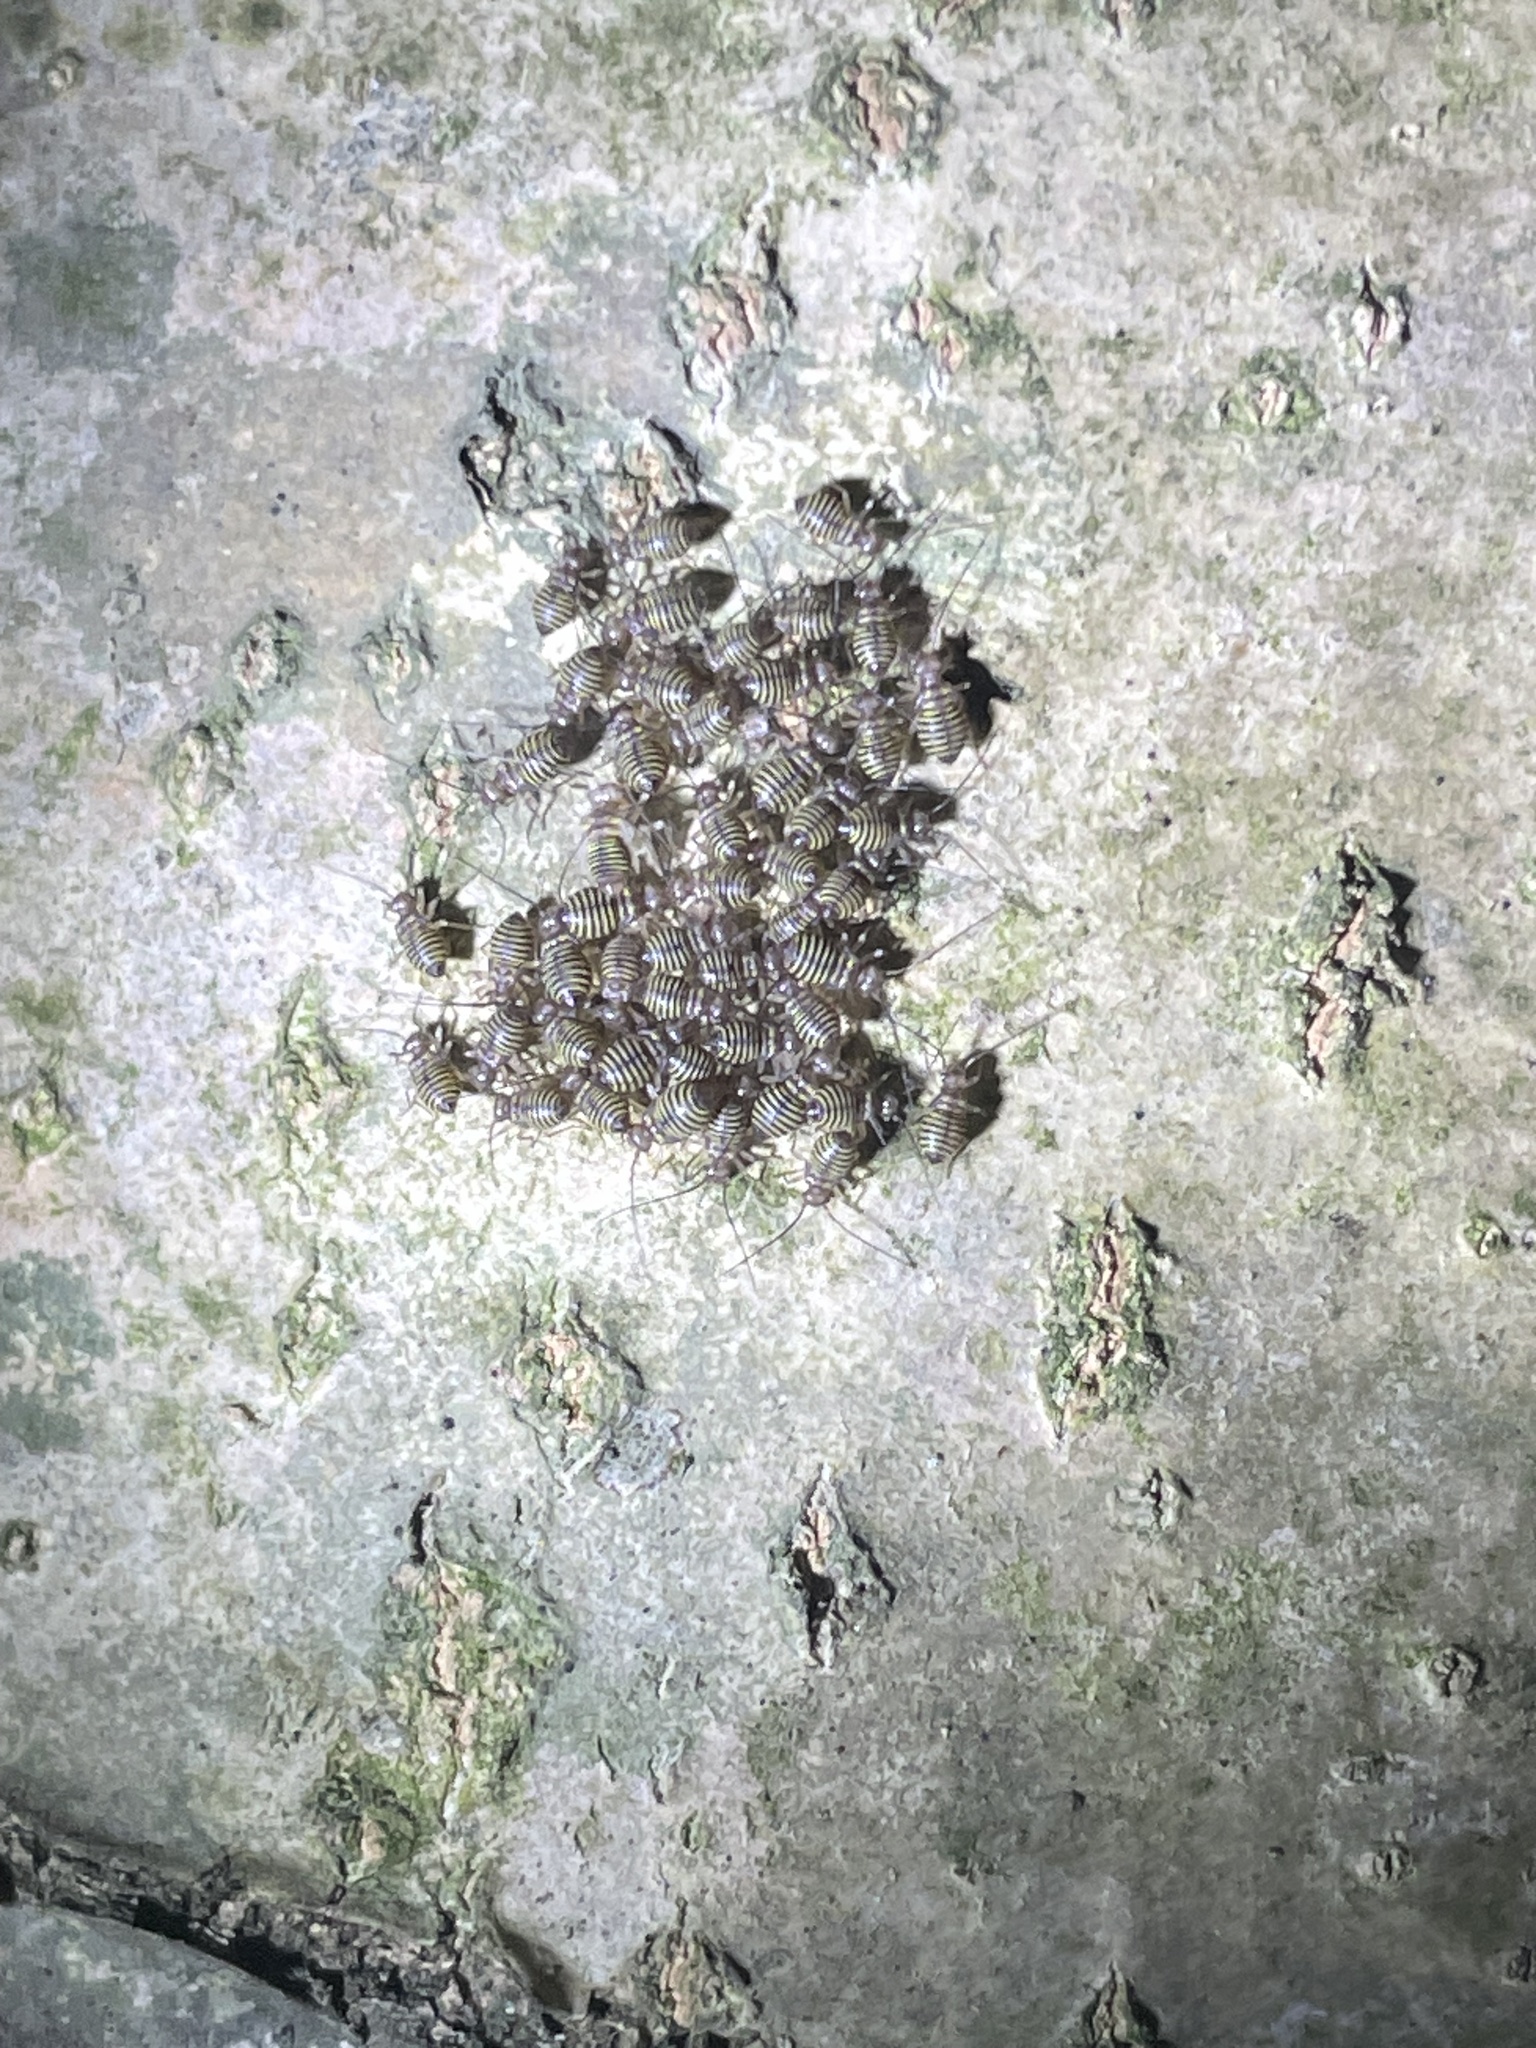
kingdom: Animalia
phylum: Arthropoda
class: Insecta
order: Psocodea
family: Psocidae
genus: Cerastipsocus
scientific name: Cerastipsocus venosus
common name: Tree cattle
